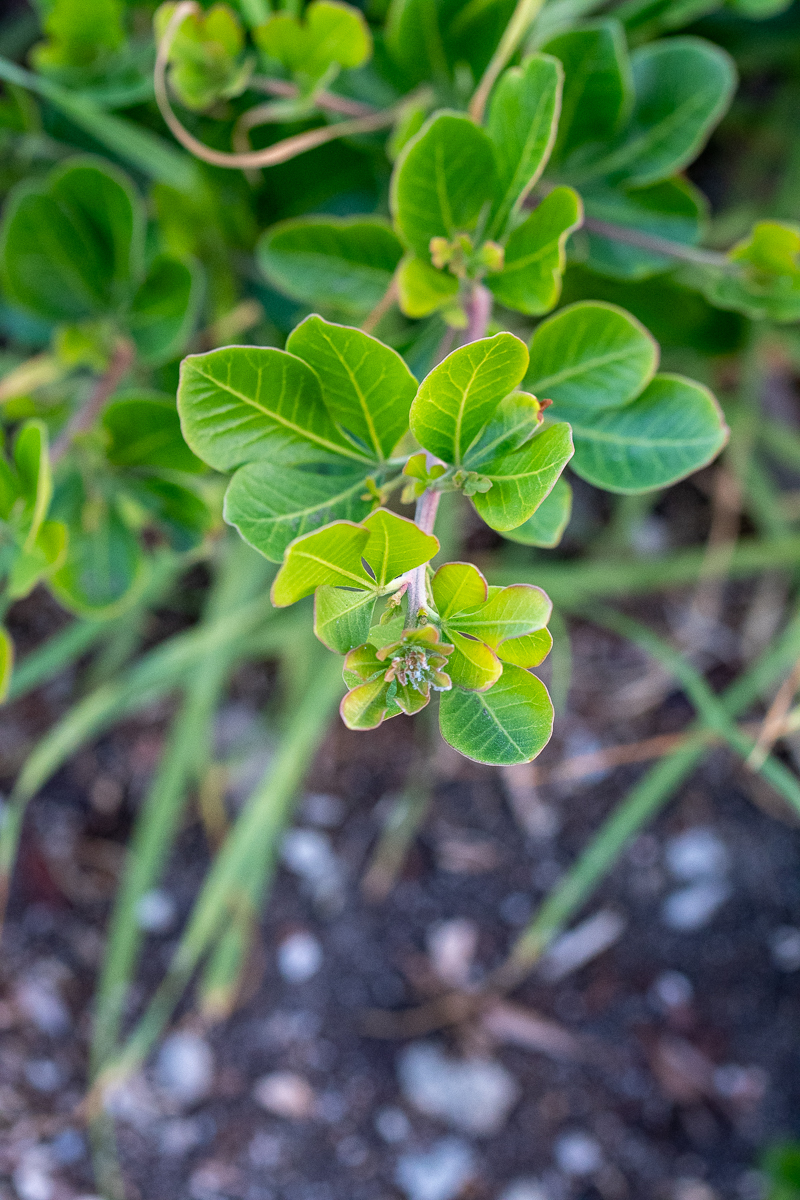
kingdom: Plantae
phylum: Tracheophyta
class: Magnoliopsida
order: Sapindales
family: Anacardiaceae
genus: Searsia
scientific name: Searsia lucida
